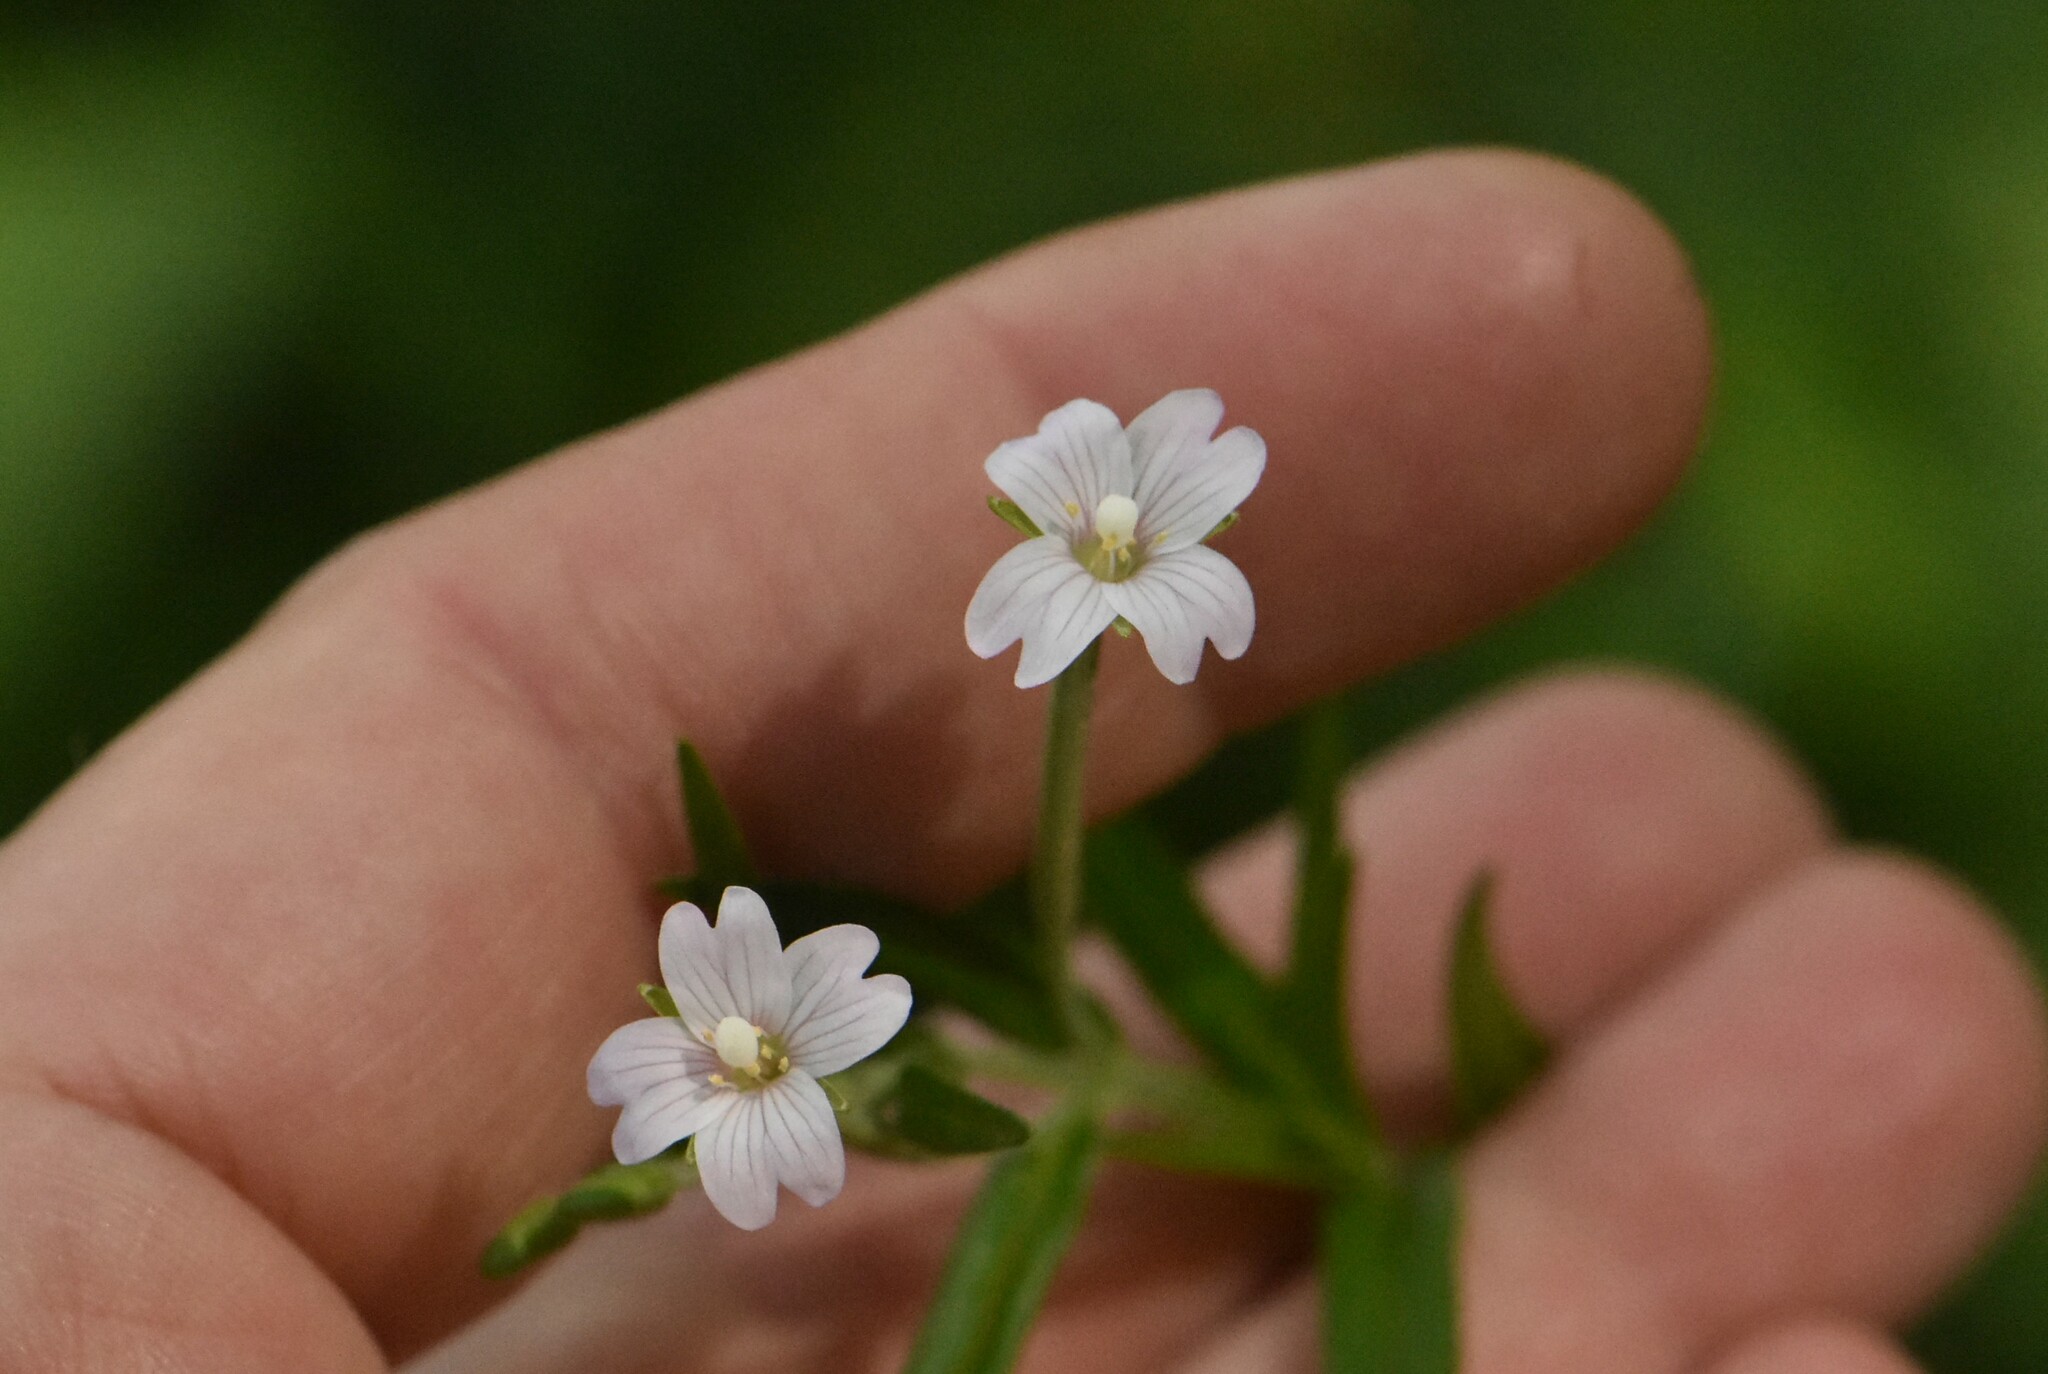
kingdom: Plantae
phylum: Tracheophyta
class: Magnoliopsida
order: Myrtales
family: Onagraceae
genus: Epilobium
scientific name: Epilobium palustre
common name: Marsh willowherb
